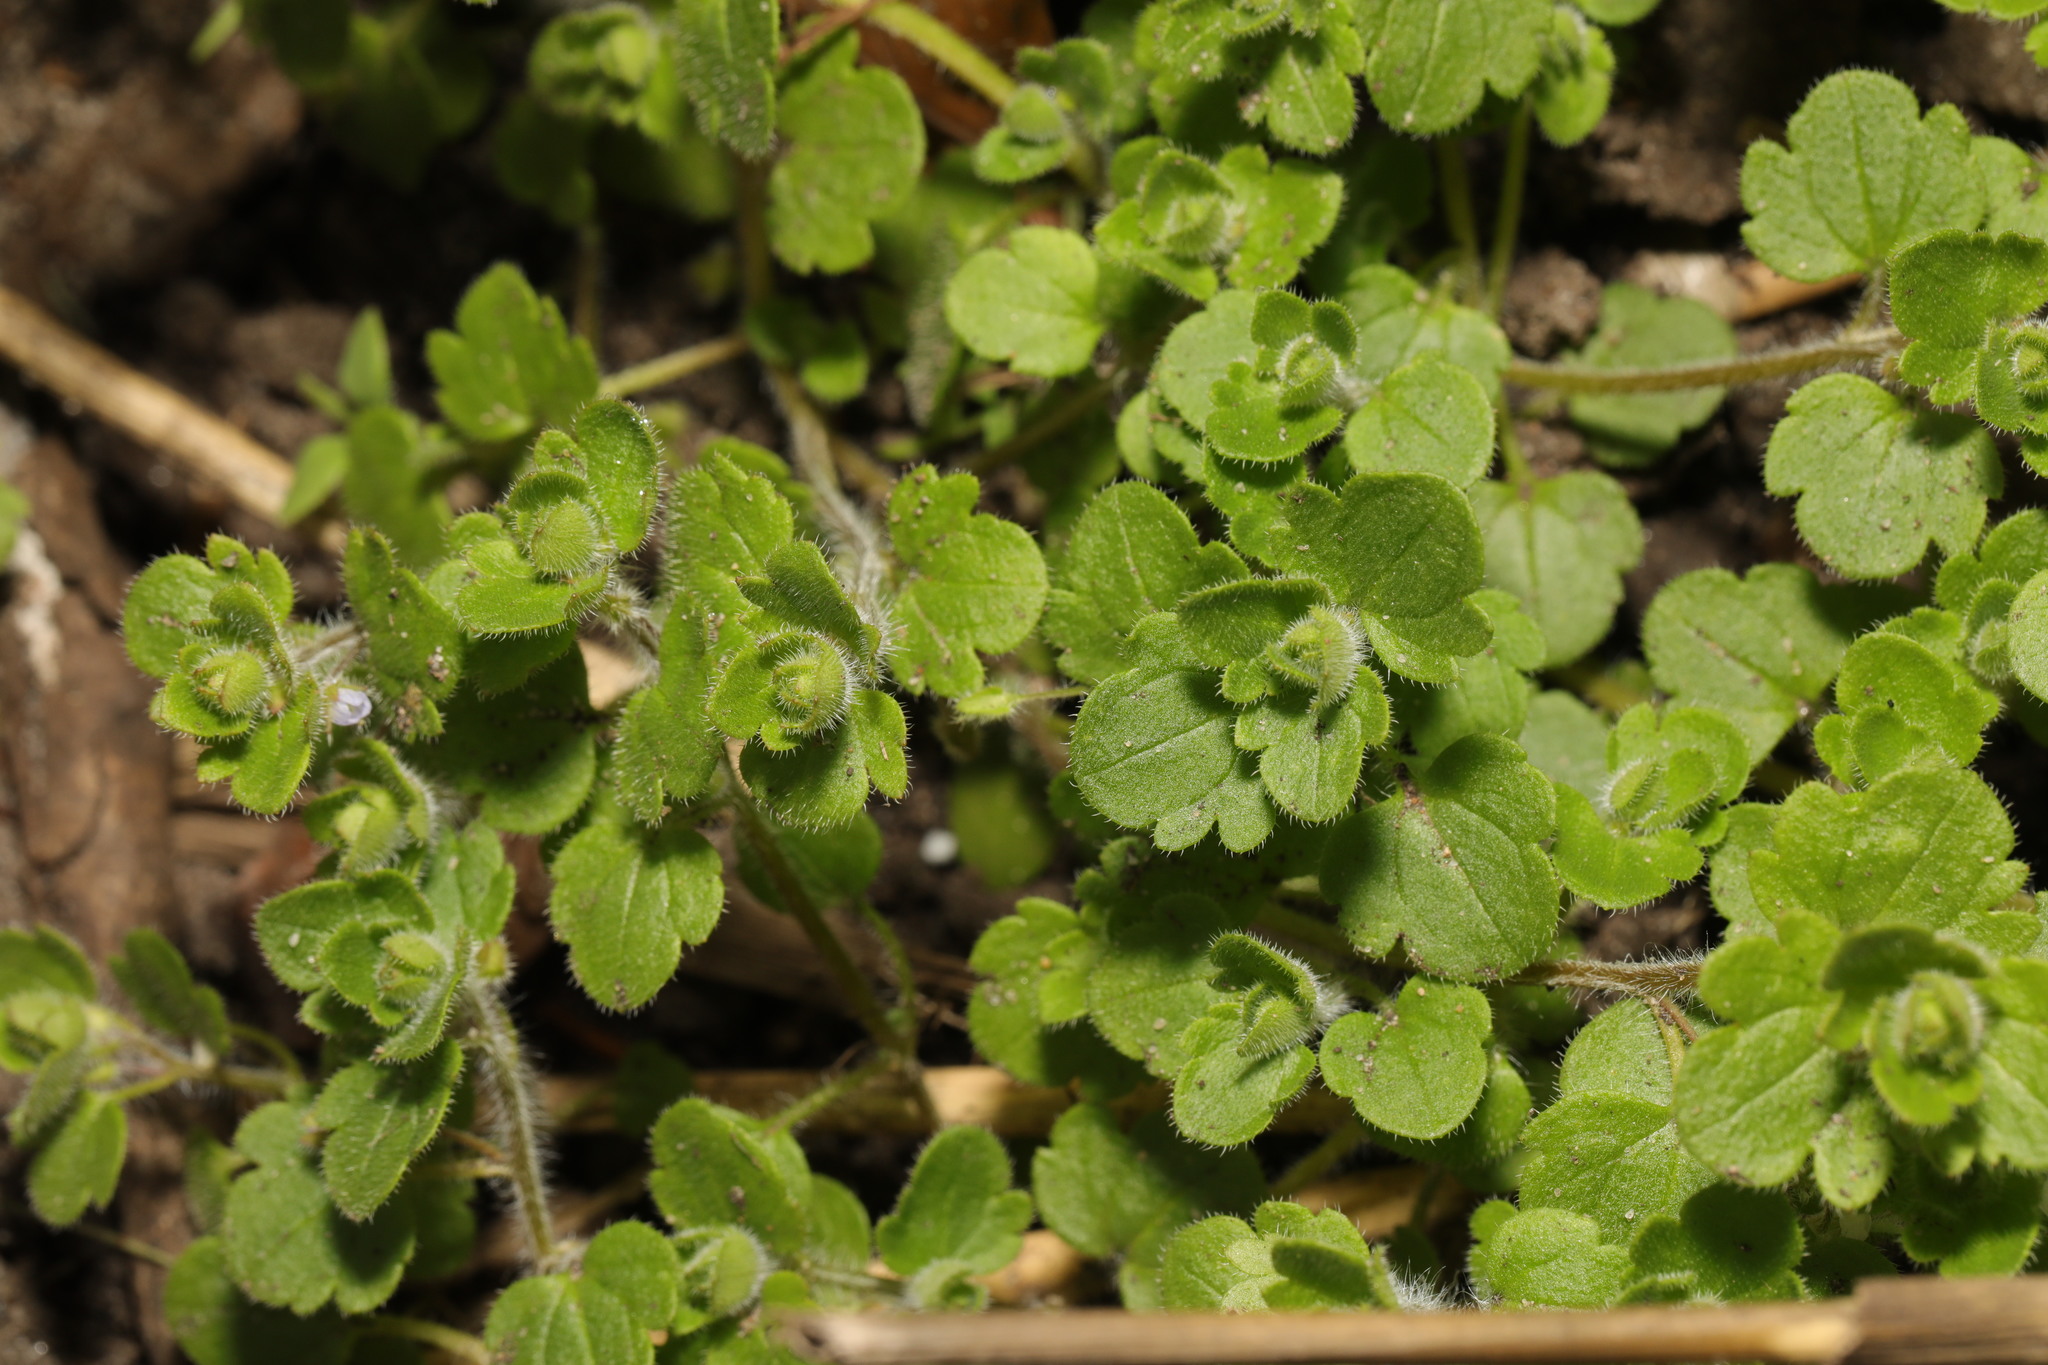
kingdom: Plantae
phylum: Tracheophyta
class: Magnoliopsida
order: Lamiales
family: Plantaginaceae
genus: Veronica
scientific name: Veronica hederifolia
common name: Ivy-leaved speedwell
